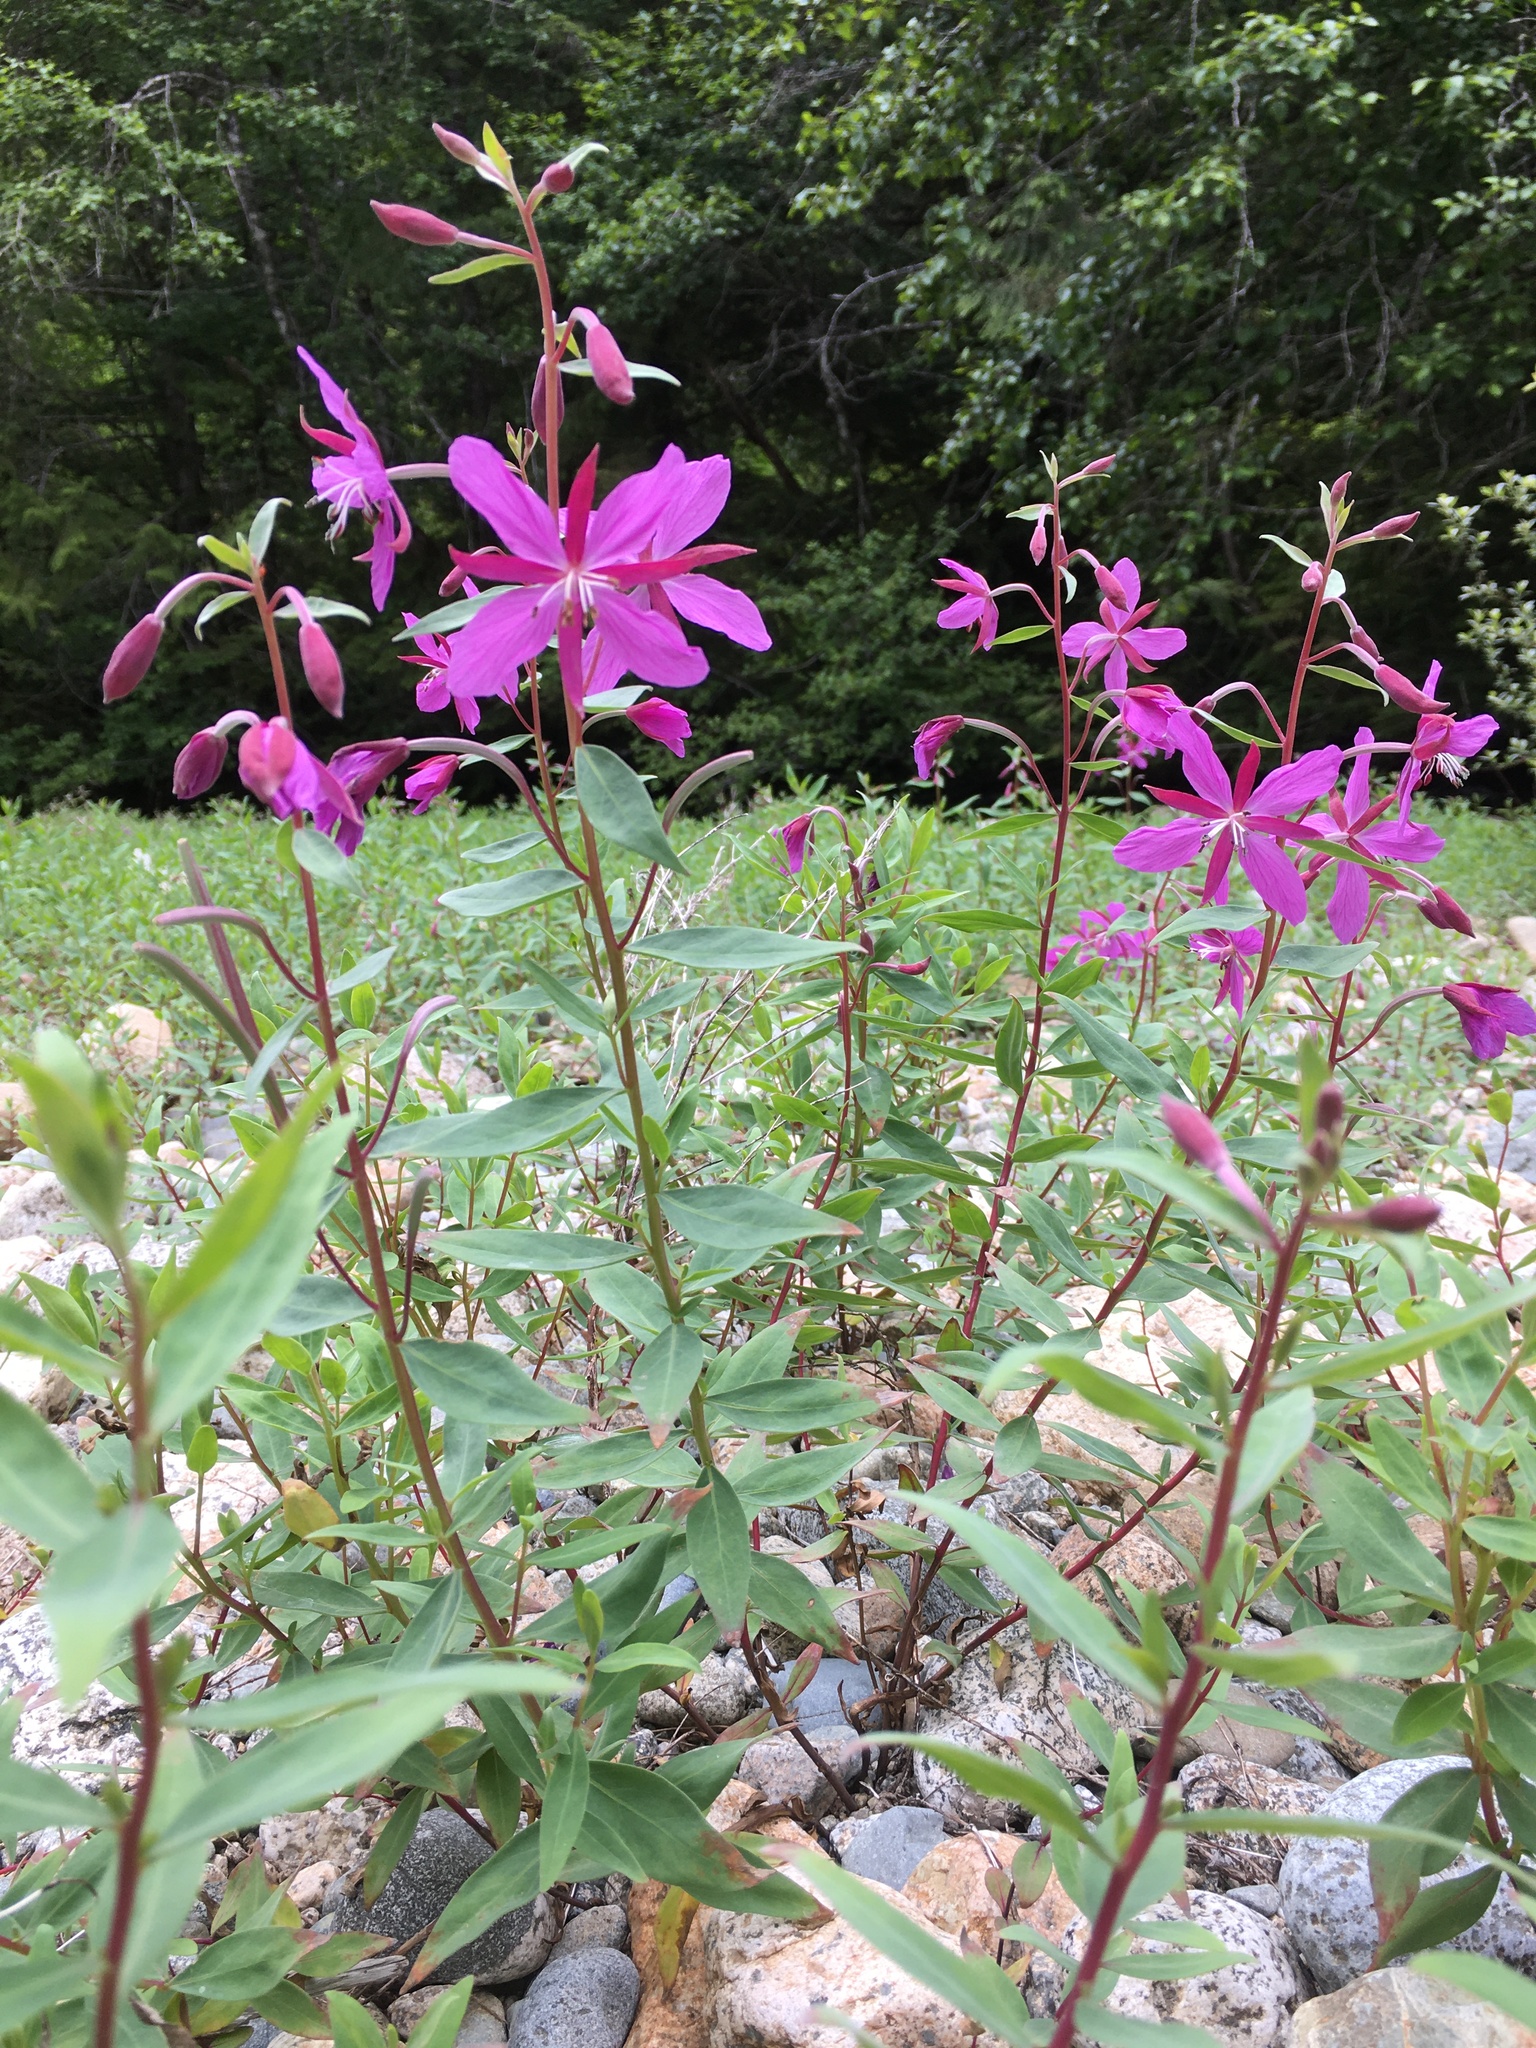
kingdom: Plantae
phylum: Tracheophyta
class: Magnoliopsida
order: Myrtales
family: Onagraceae
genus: Chamaenerion
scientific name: Chamaenerion latifolium
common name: Dwarf fireweed
